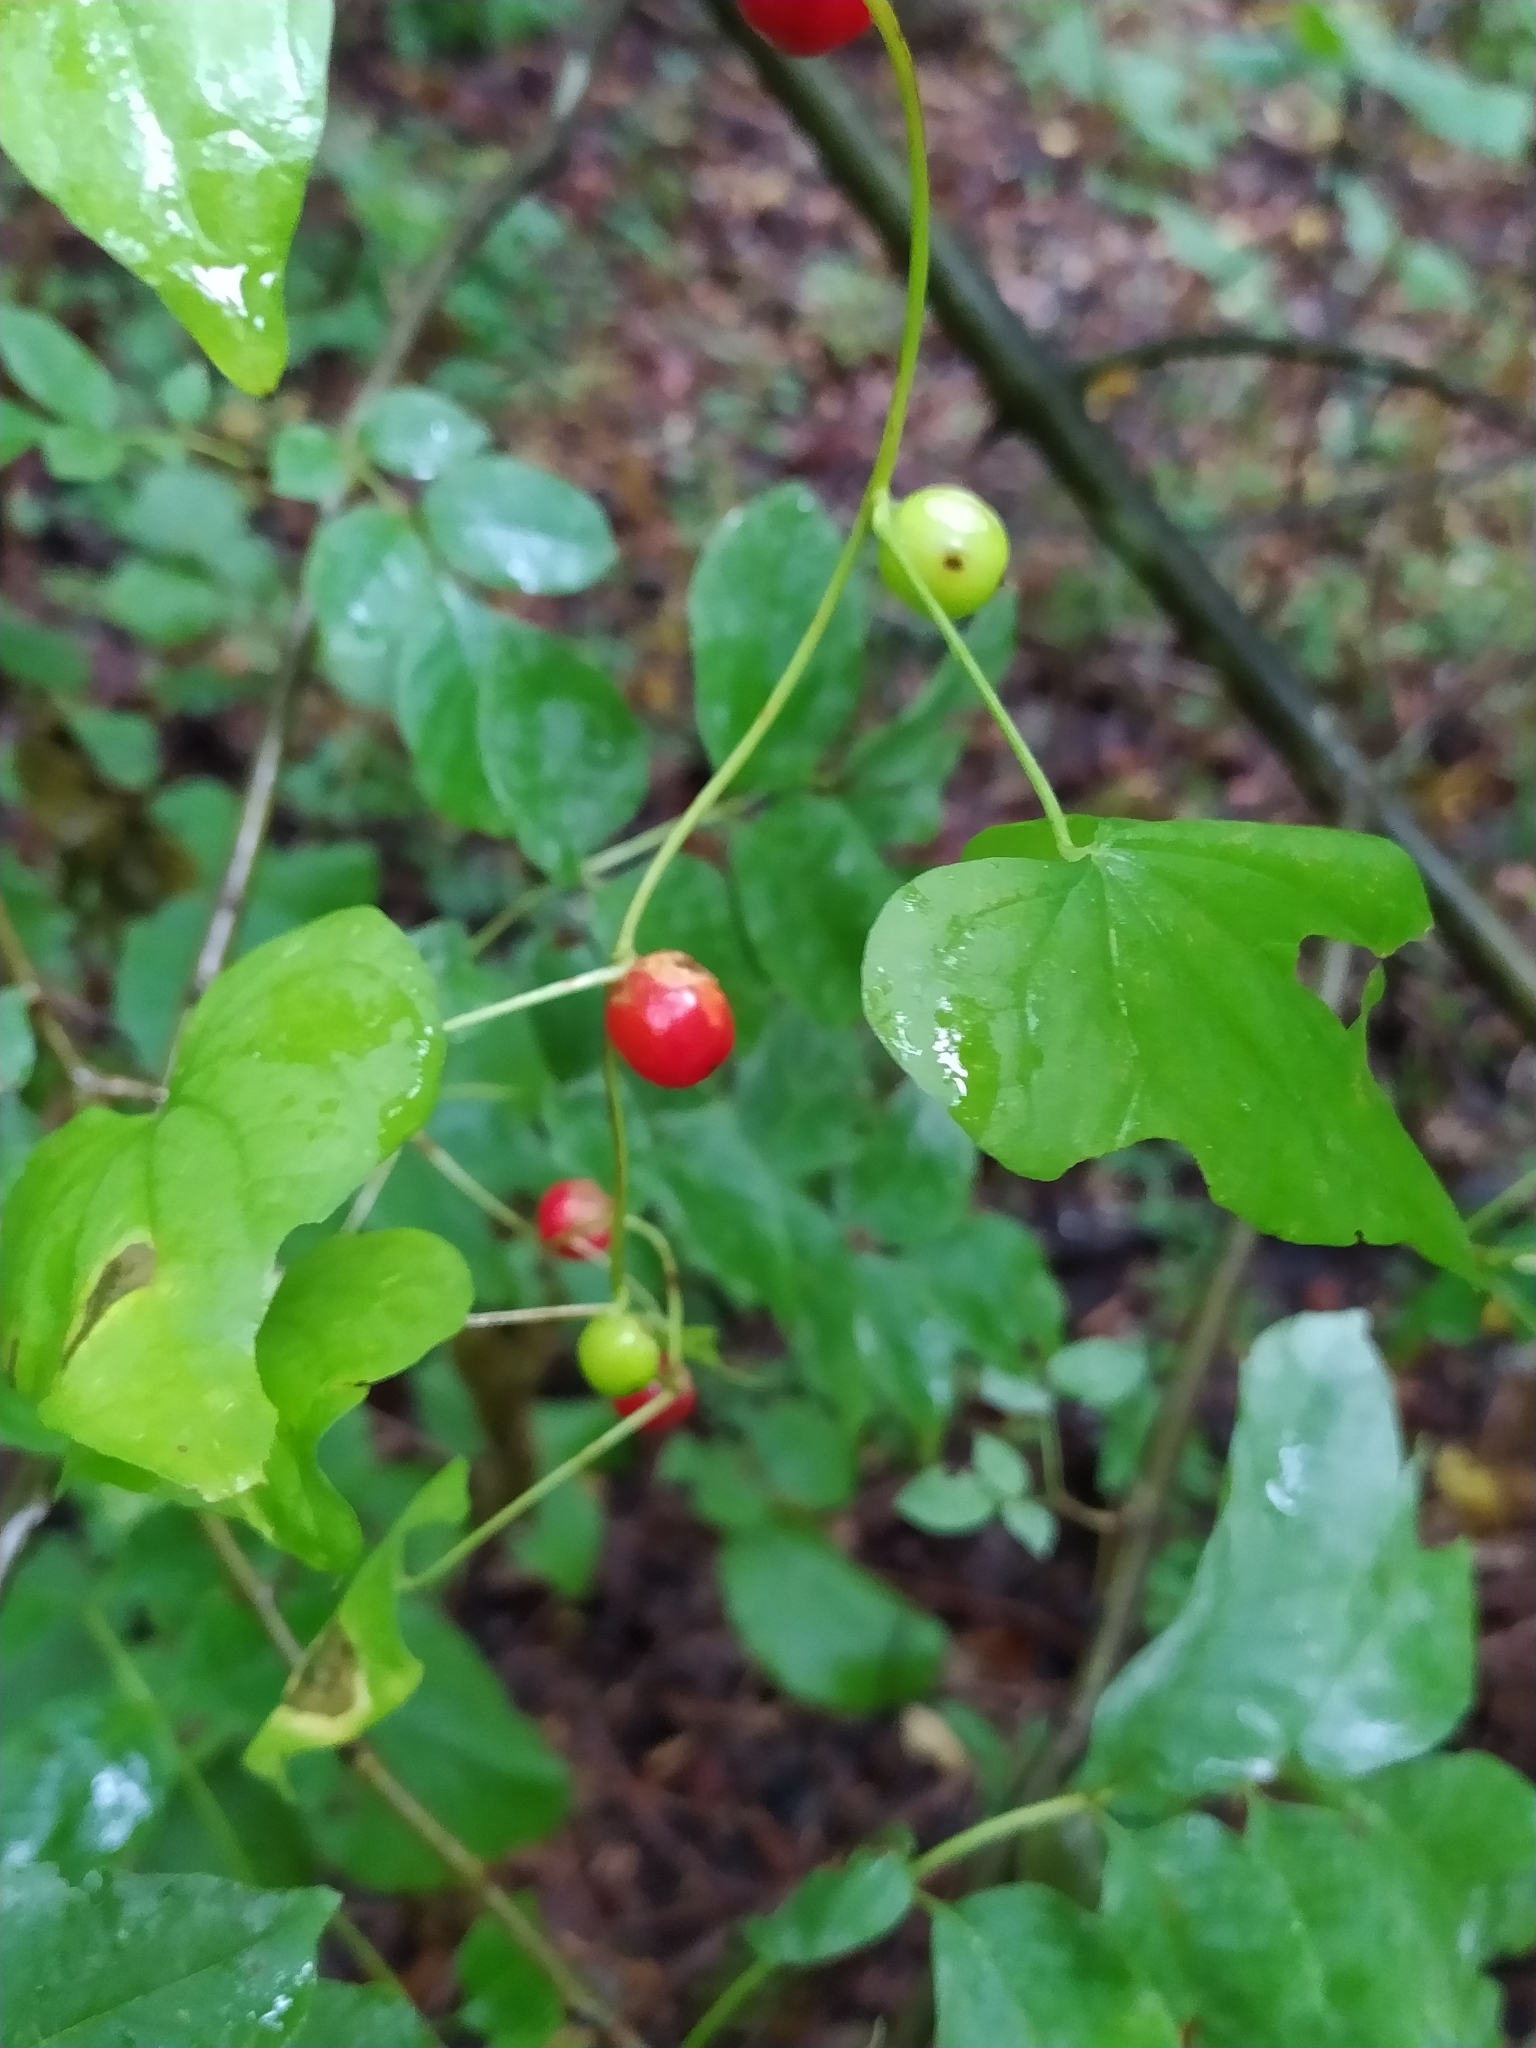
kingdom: Plantae
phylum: Tracheophyta
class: Liliopsida
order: Dioscoreales
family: Dioscoreaceae
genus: Dioscorea
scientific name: Dioscorea communis
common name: Black-bindweed
